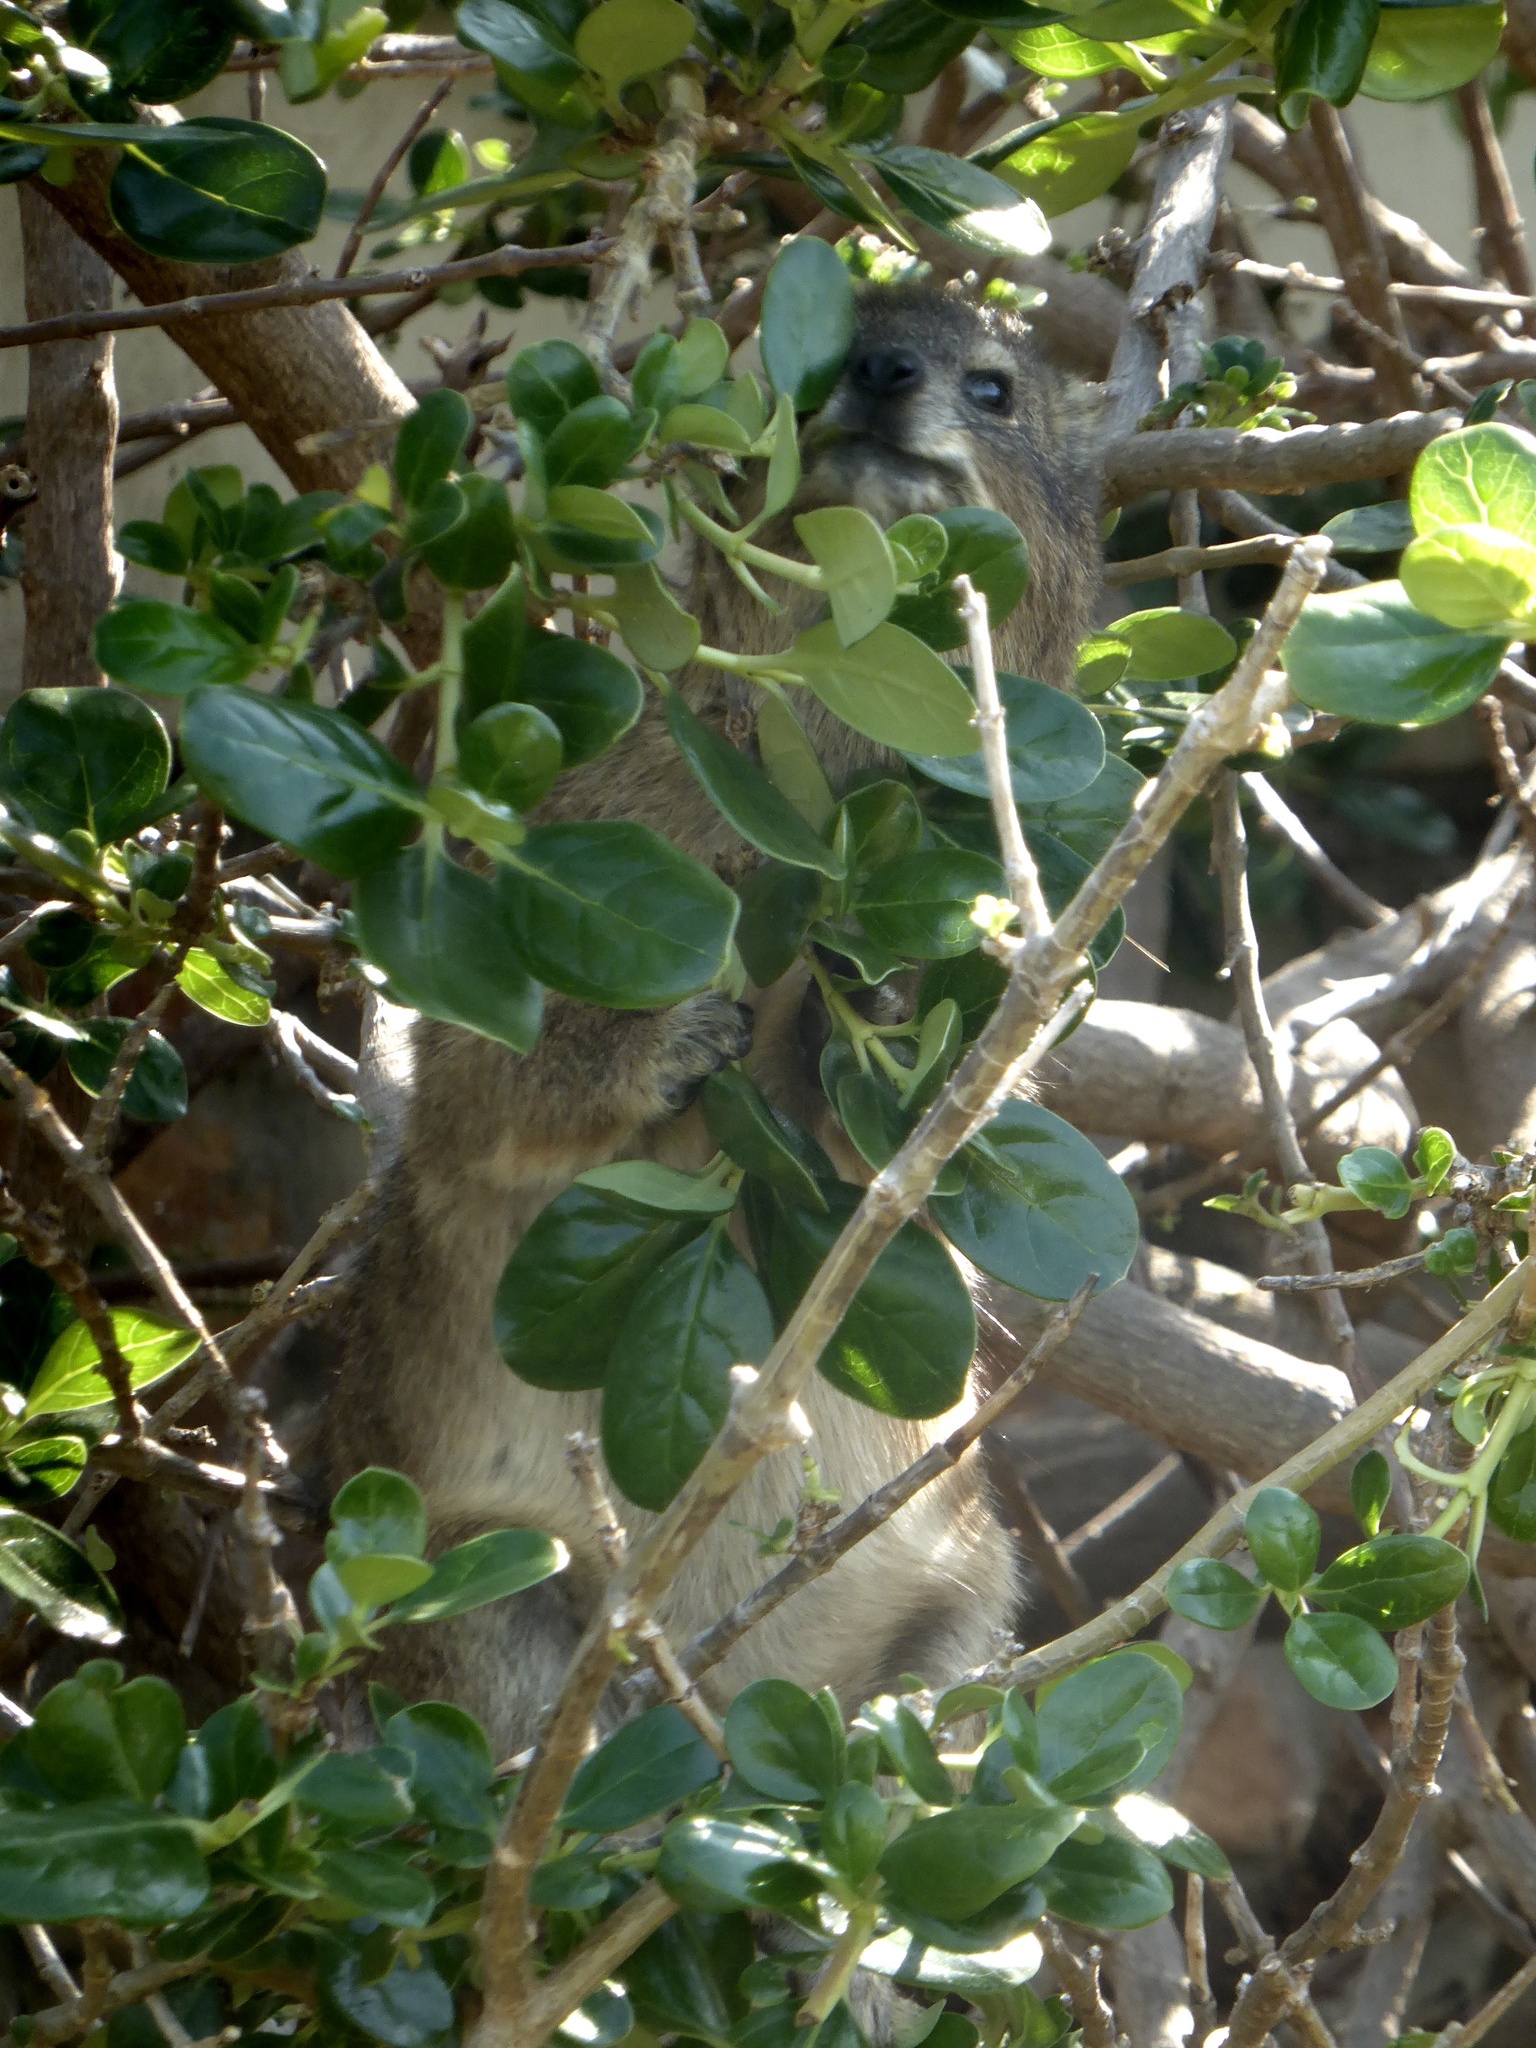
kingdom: Animalia
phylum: Chordata
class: Mammalia
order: Hyracoidea
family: Procaviidae
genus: Procavia
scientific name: Procavia capensis
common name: Rock hyrax
